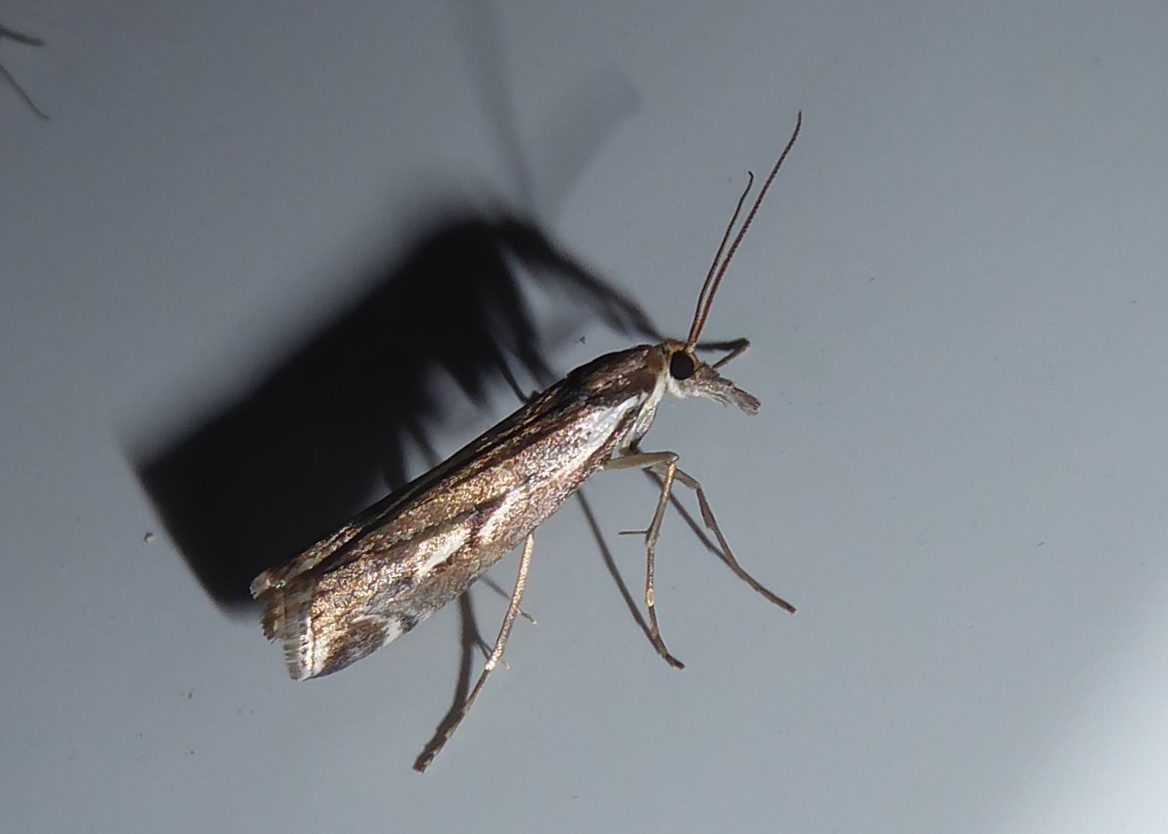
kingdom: Animalia
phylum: Arthropoda
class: Insecta
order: Lepidoptera
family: Crambidae
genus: Orocrambus
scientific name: Orocrambus vulgaris
